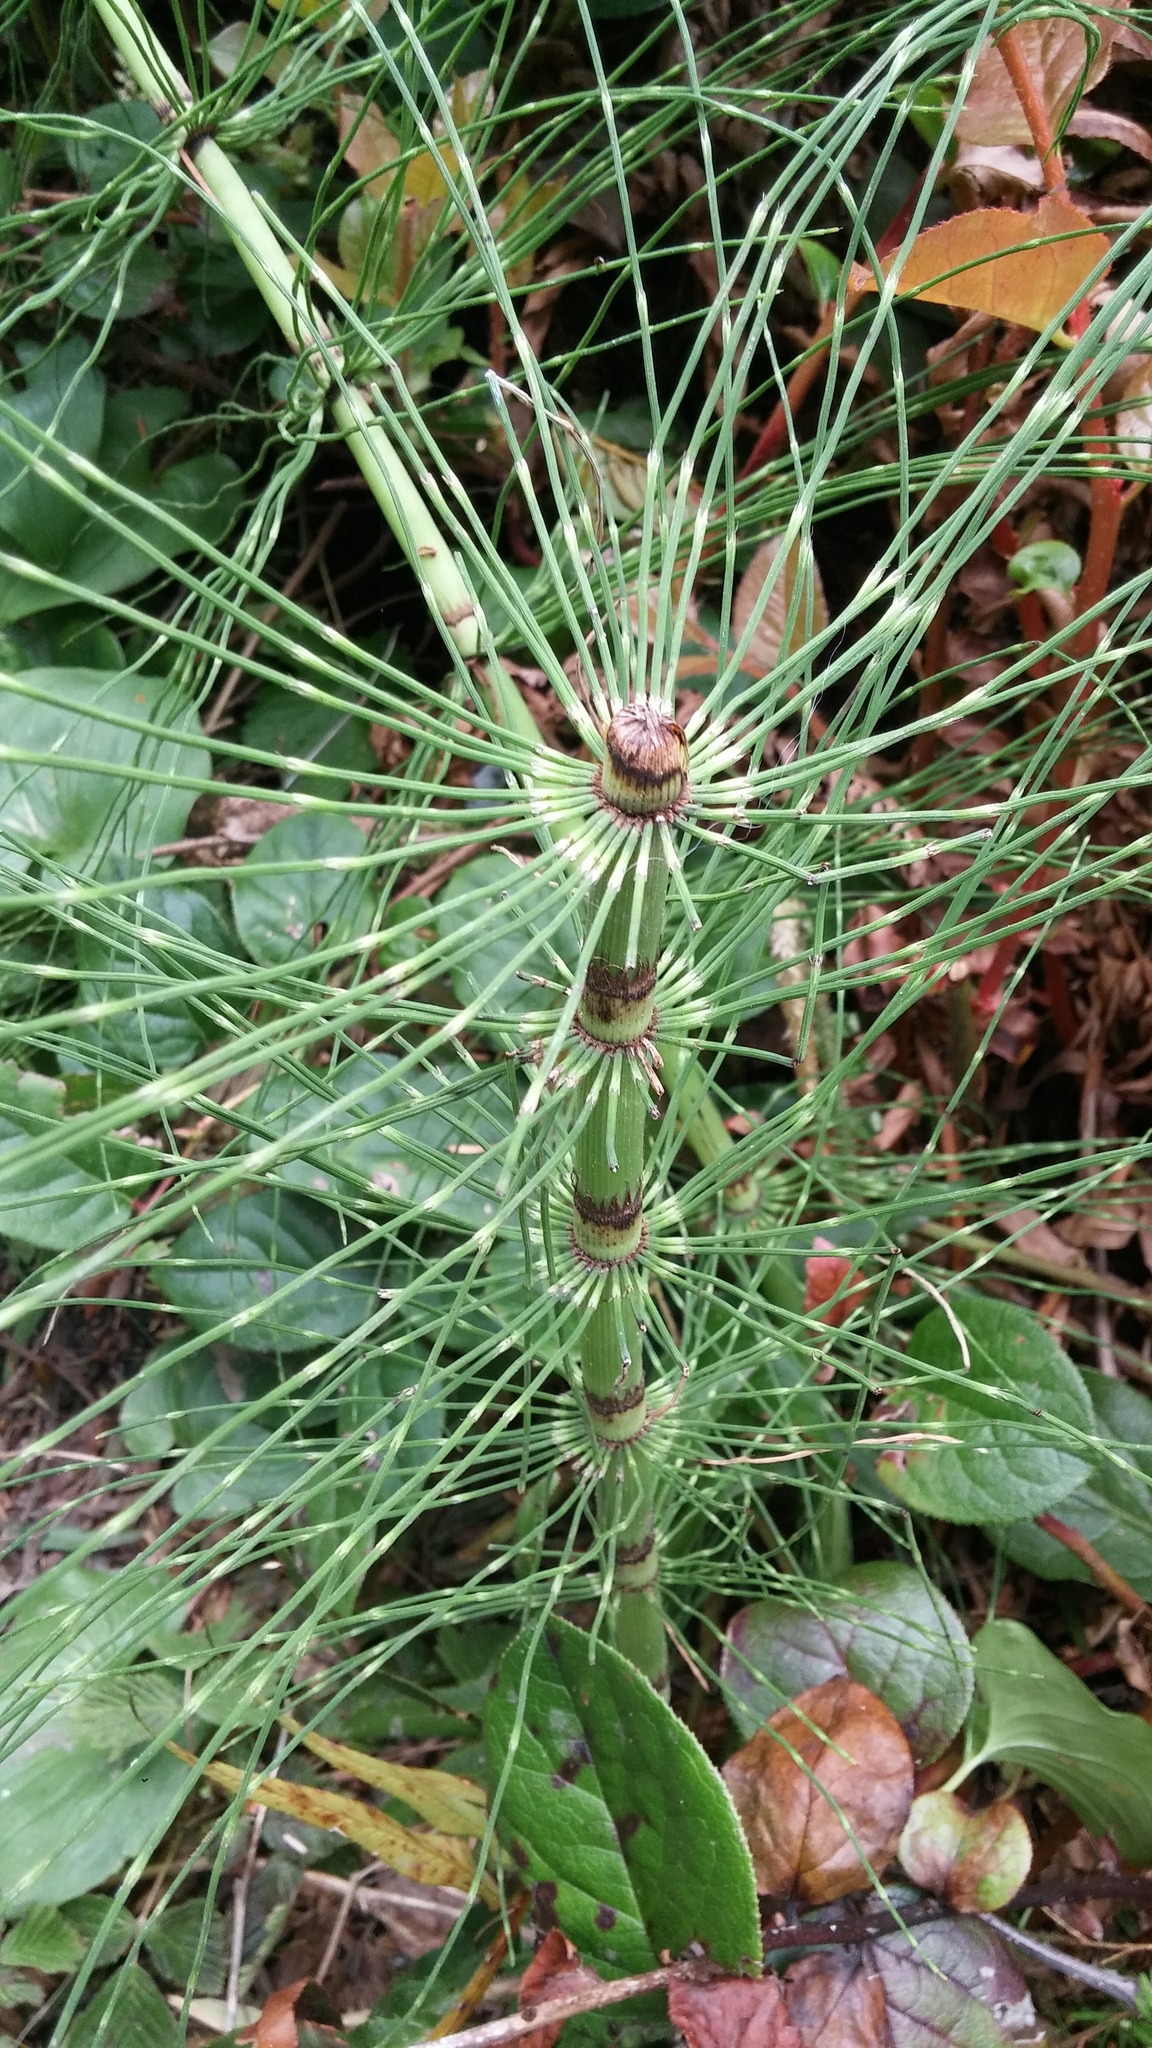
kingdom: Plantae
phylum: Tracheophyta
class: Polypodiopsida
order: Equisetales
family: Equisetaceae
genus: Equisetum
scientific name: Equisetum telmateia
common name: Great horsetail
